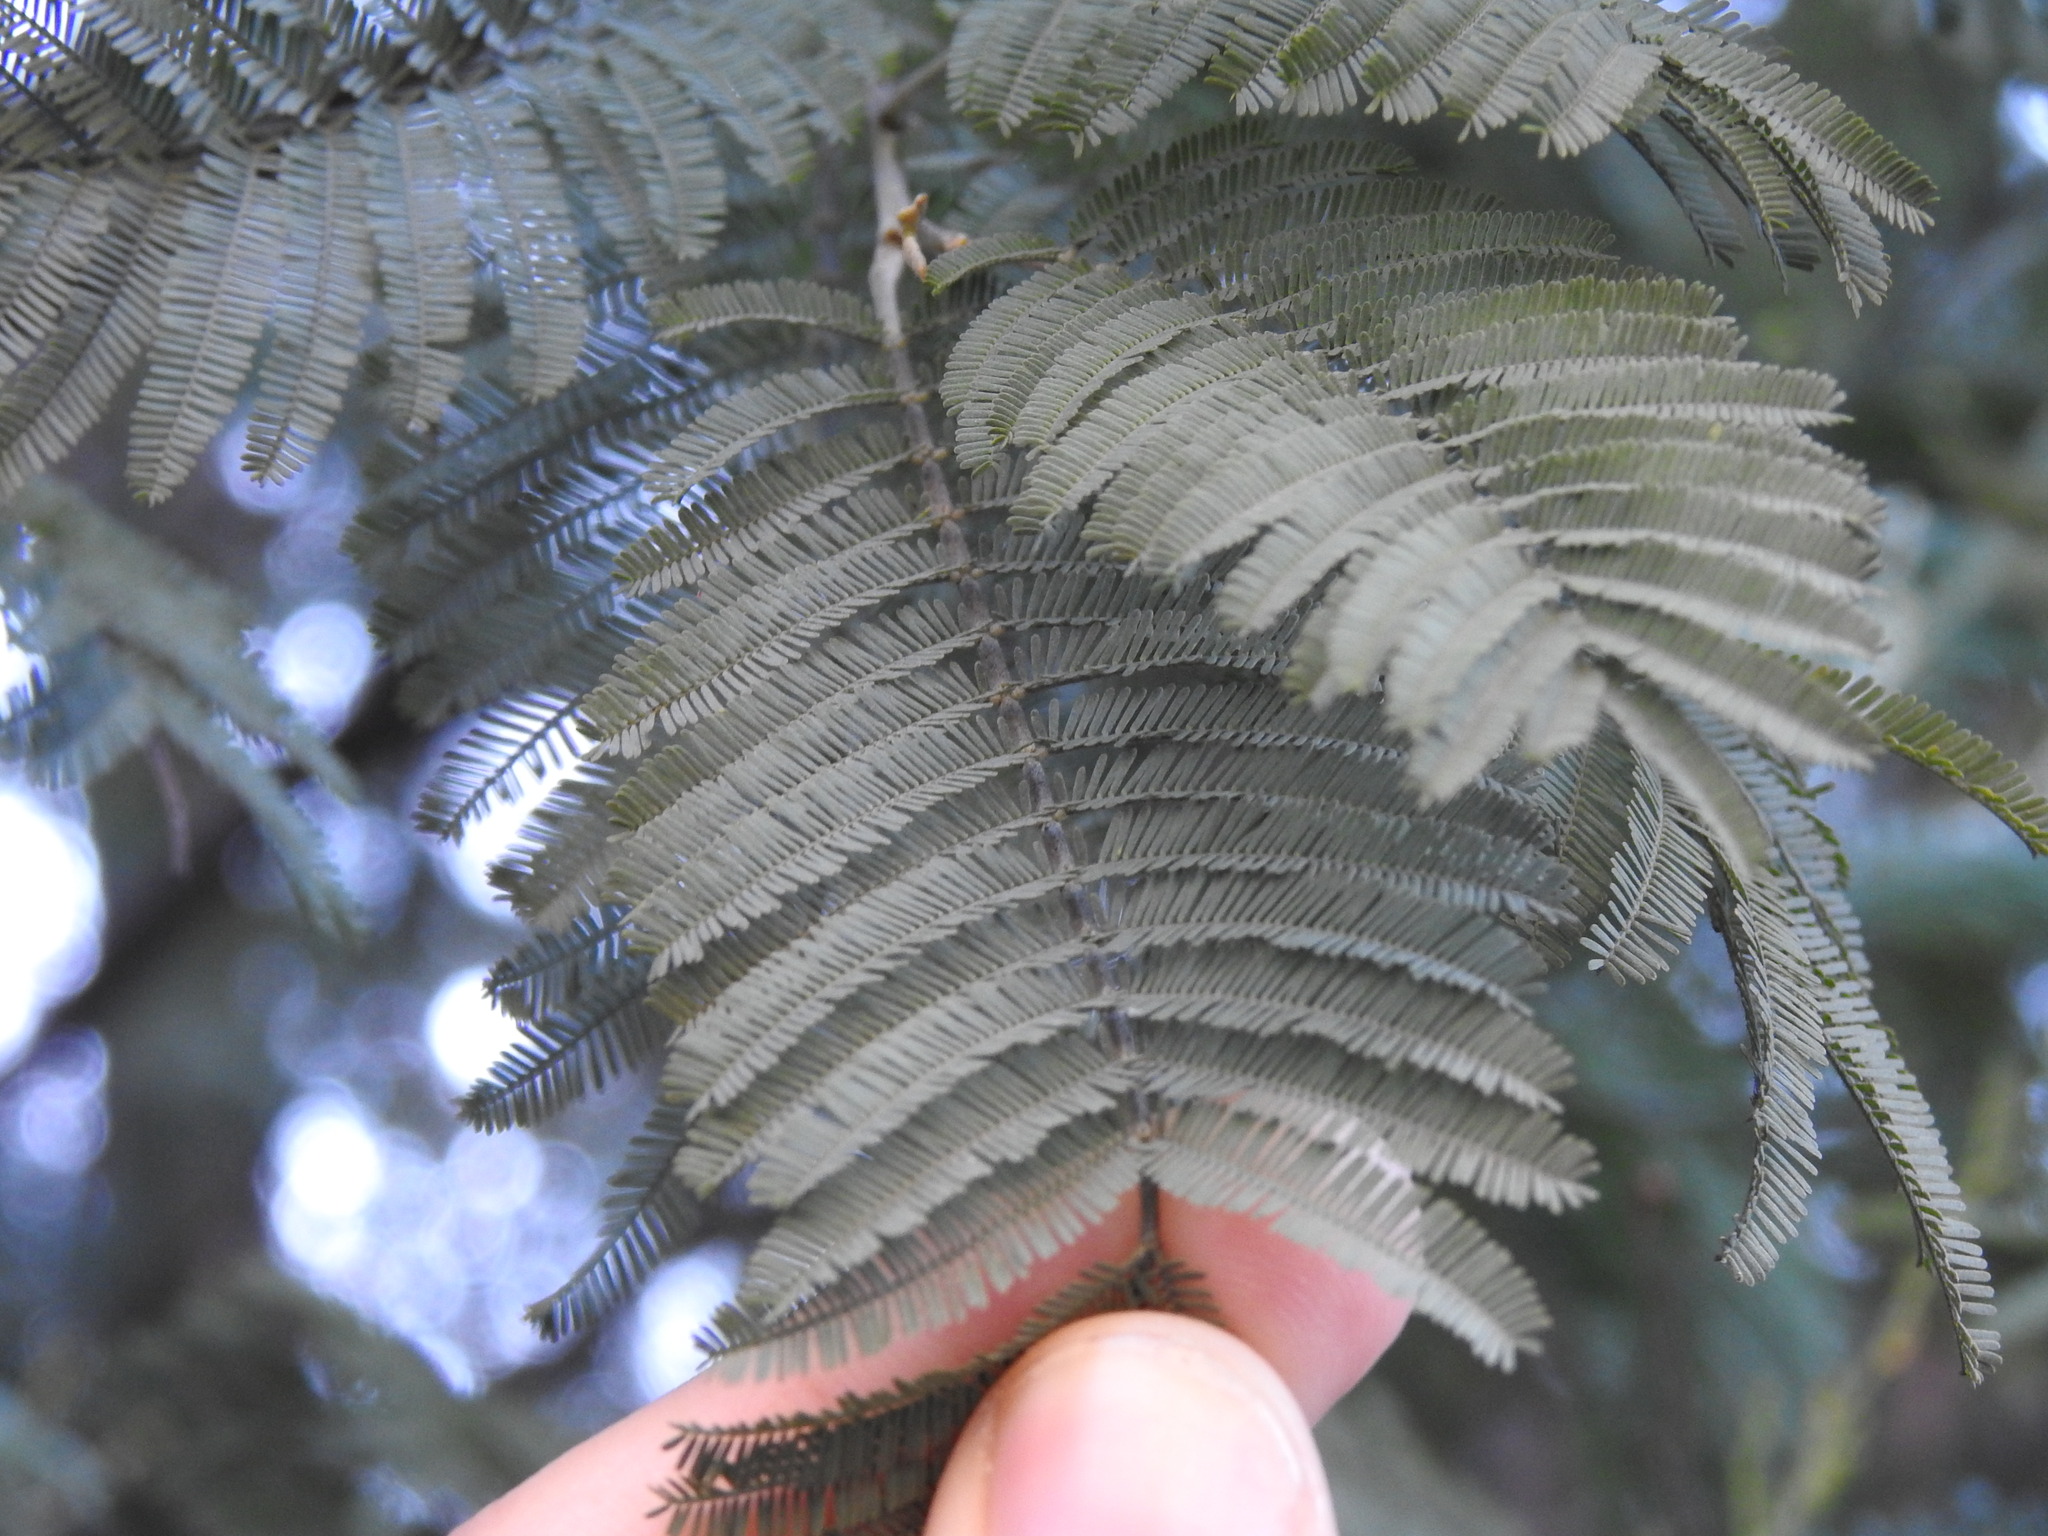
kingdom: Plantae
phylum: Tracheophyta
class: Magnoliopsida
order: Fabales
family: Fabaceae
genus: Acacia
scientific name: Acacia dealbata
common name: Silver wattle
